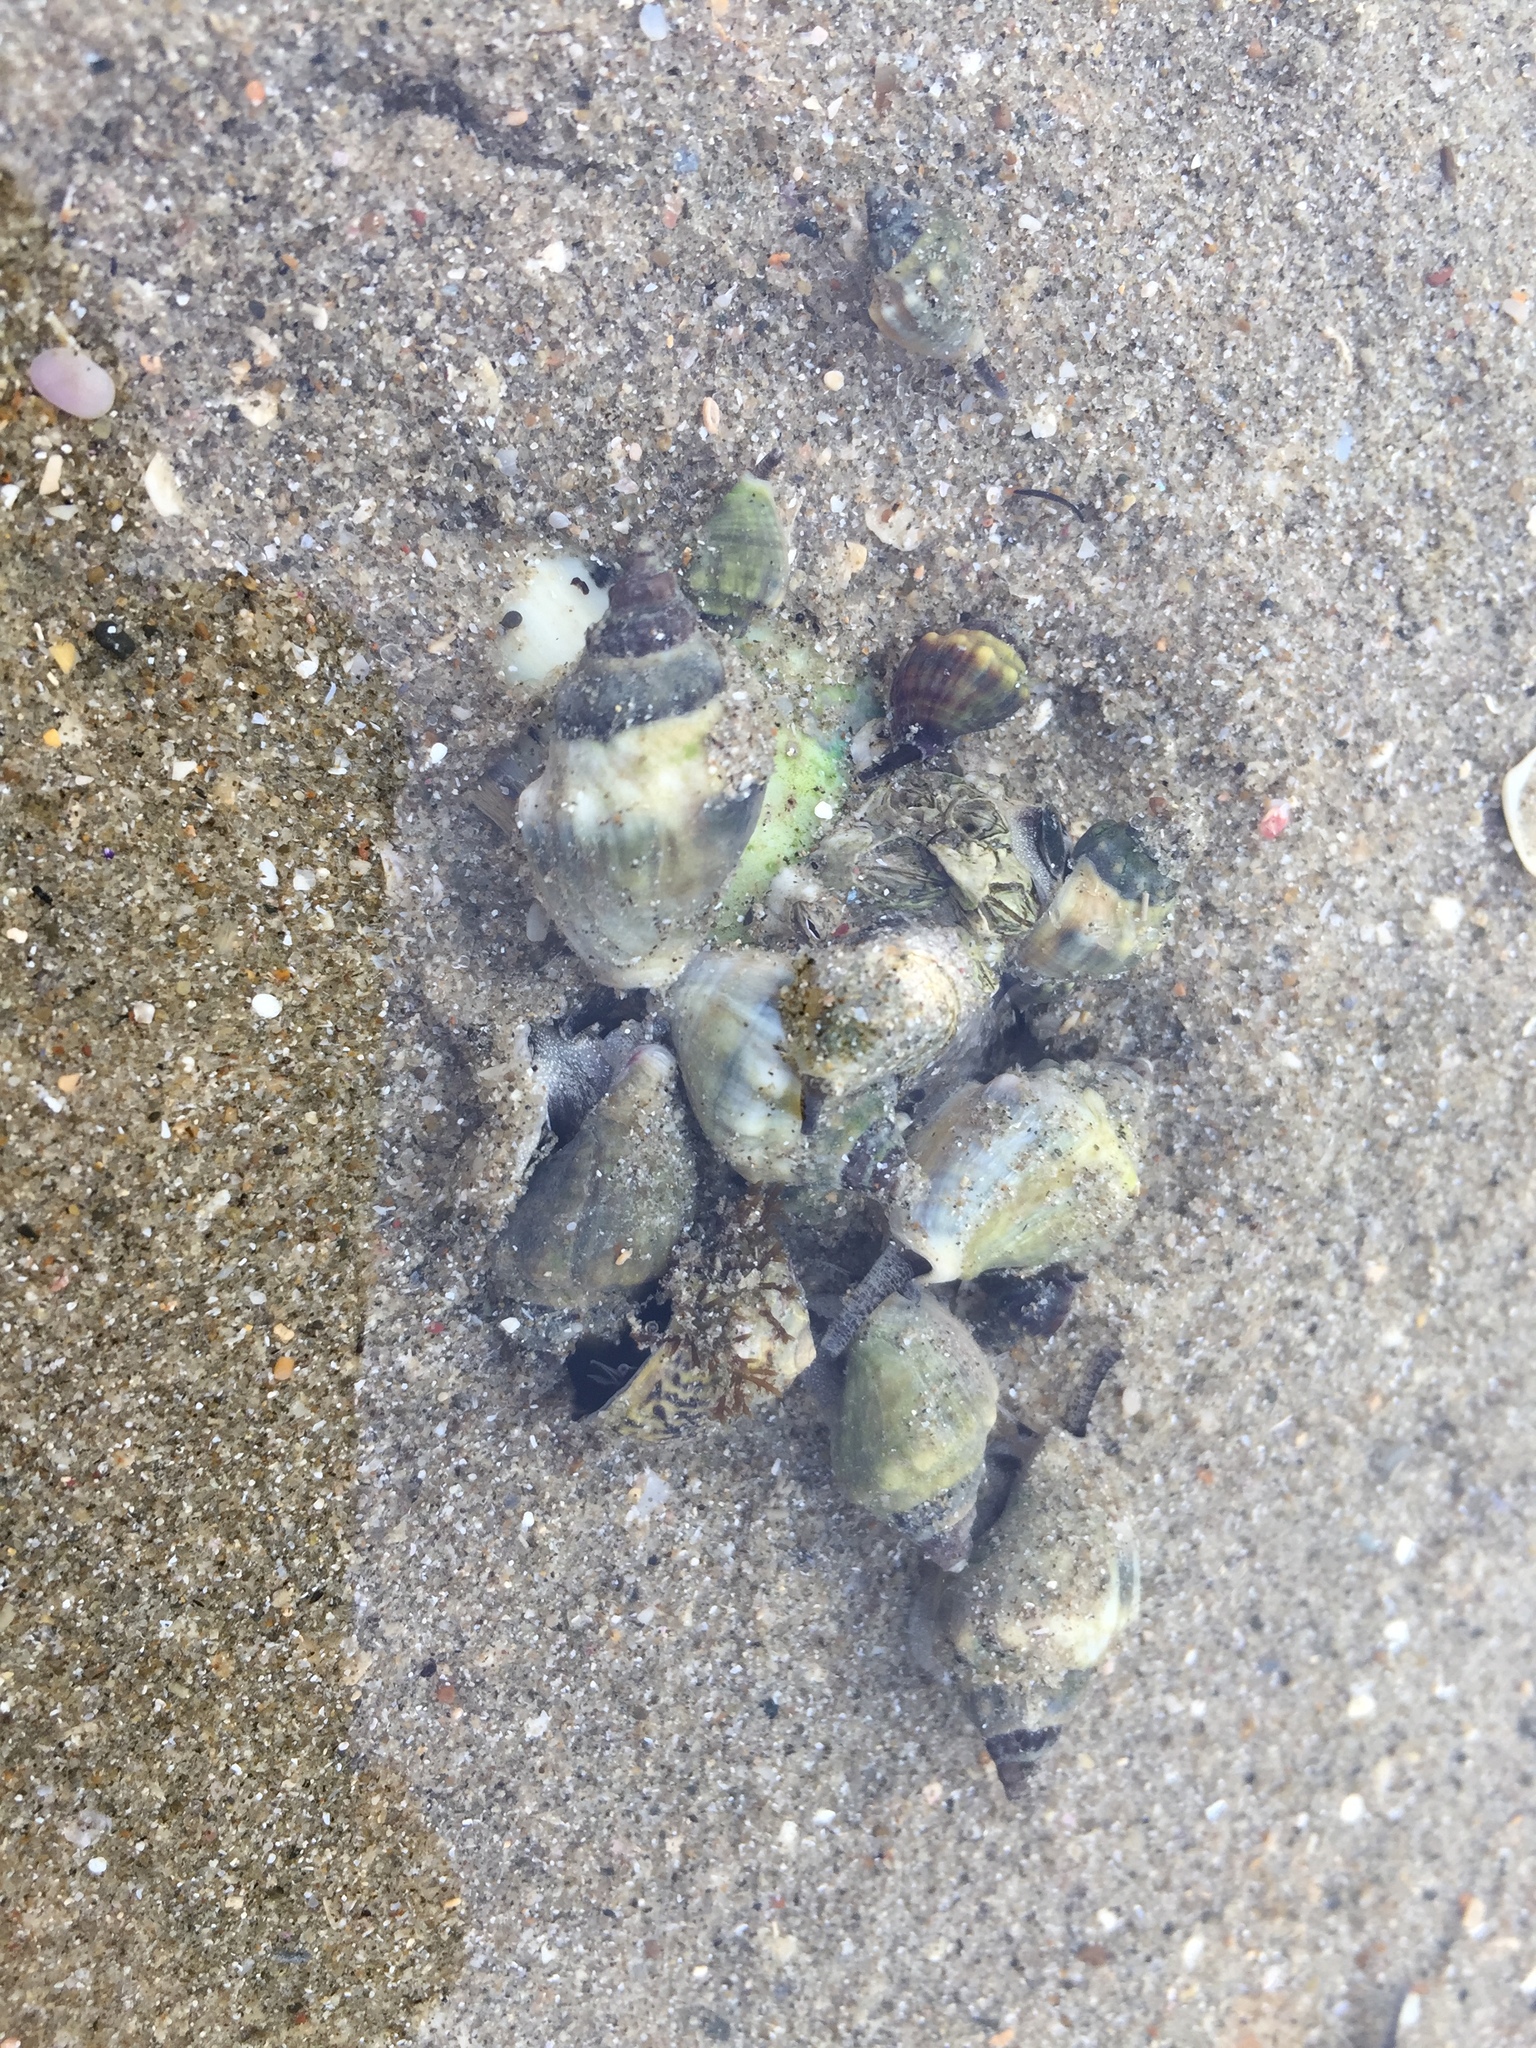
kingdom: Animalia
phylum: Mollusca
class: Gastropoda
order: Neogastropoda
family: Cominellidae
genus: Cominella
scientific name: Cominella glandiformis
